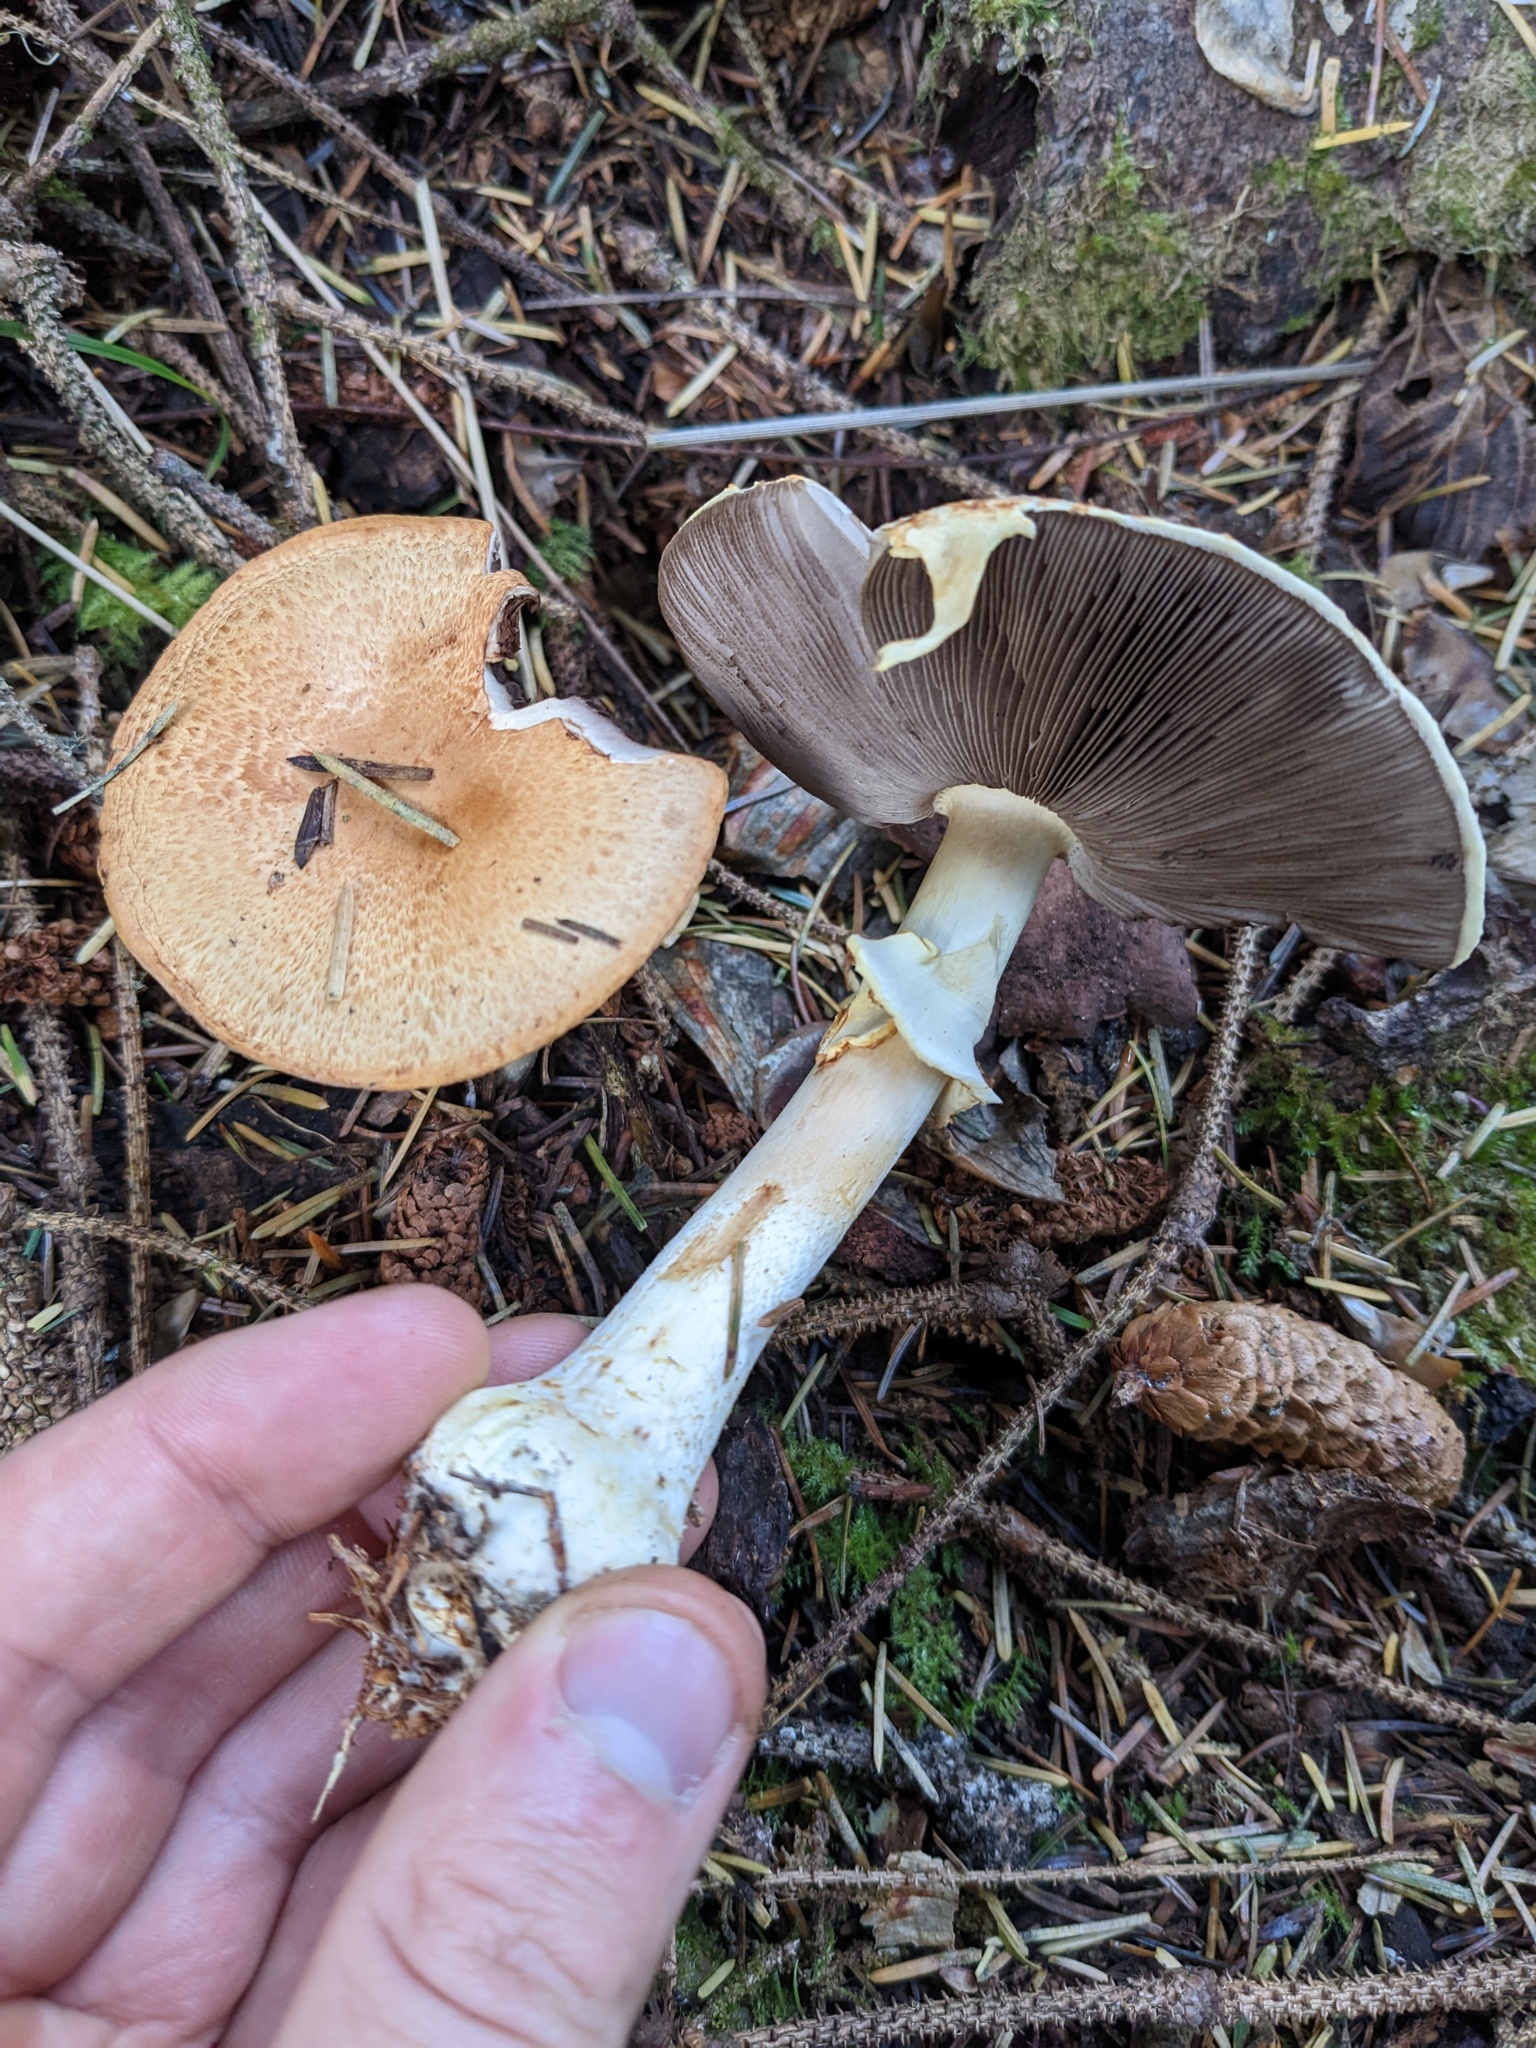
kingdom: Fungi
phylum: Basidiomycota
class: Agaricomycetes
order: Agaricales
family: Agaricaceae
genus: Agaricus
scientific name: Agaricus smithianus
